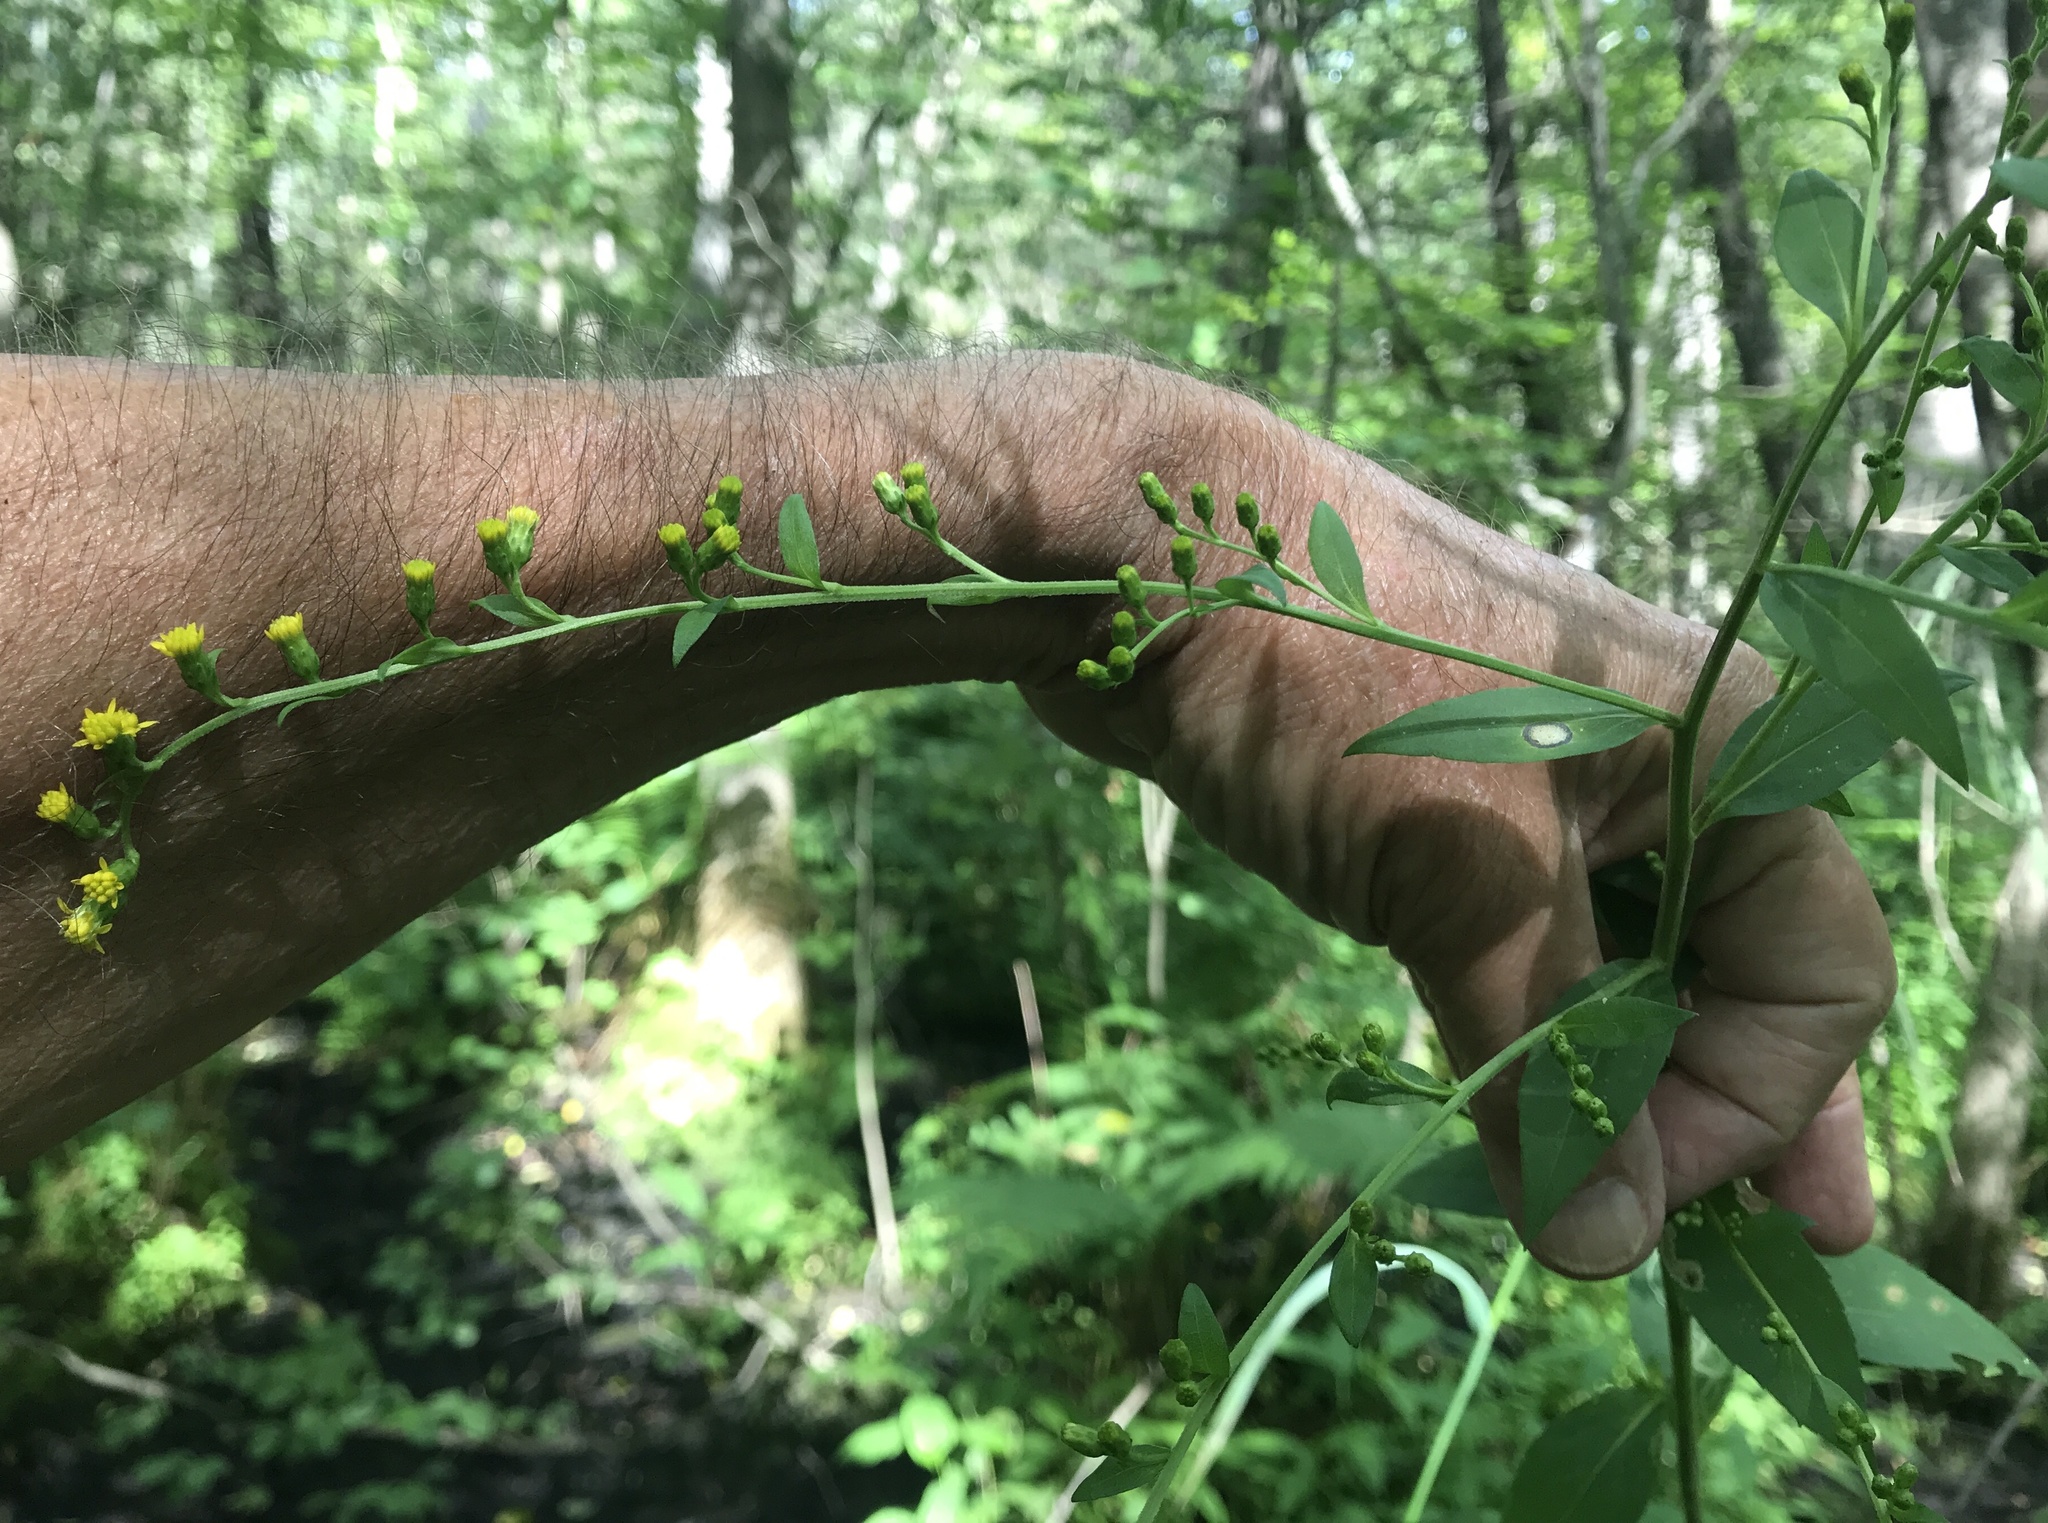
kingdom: Plantae
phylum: Tracheophyta
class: Magnoliopsida
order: Asterales
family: Asteraceae
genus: Solidago
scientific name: Solidago patula
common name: Rough-leaf goldenrod
